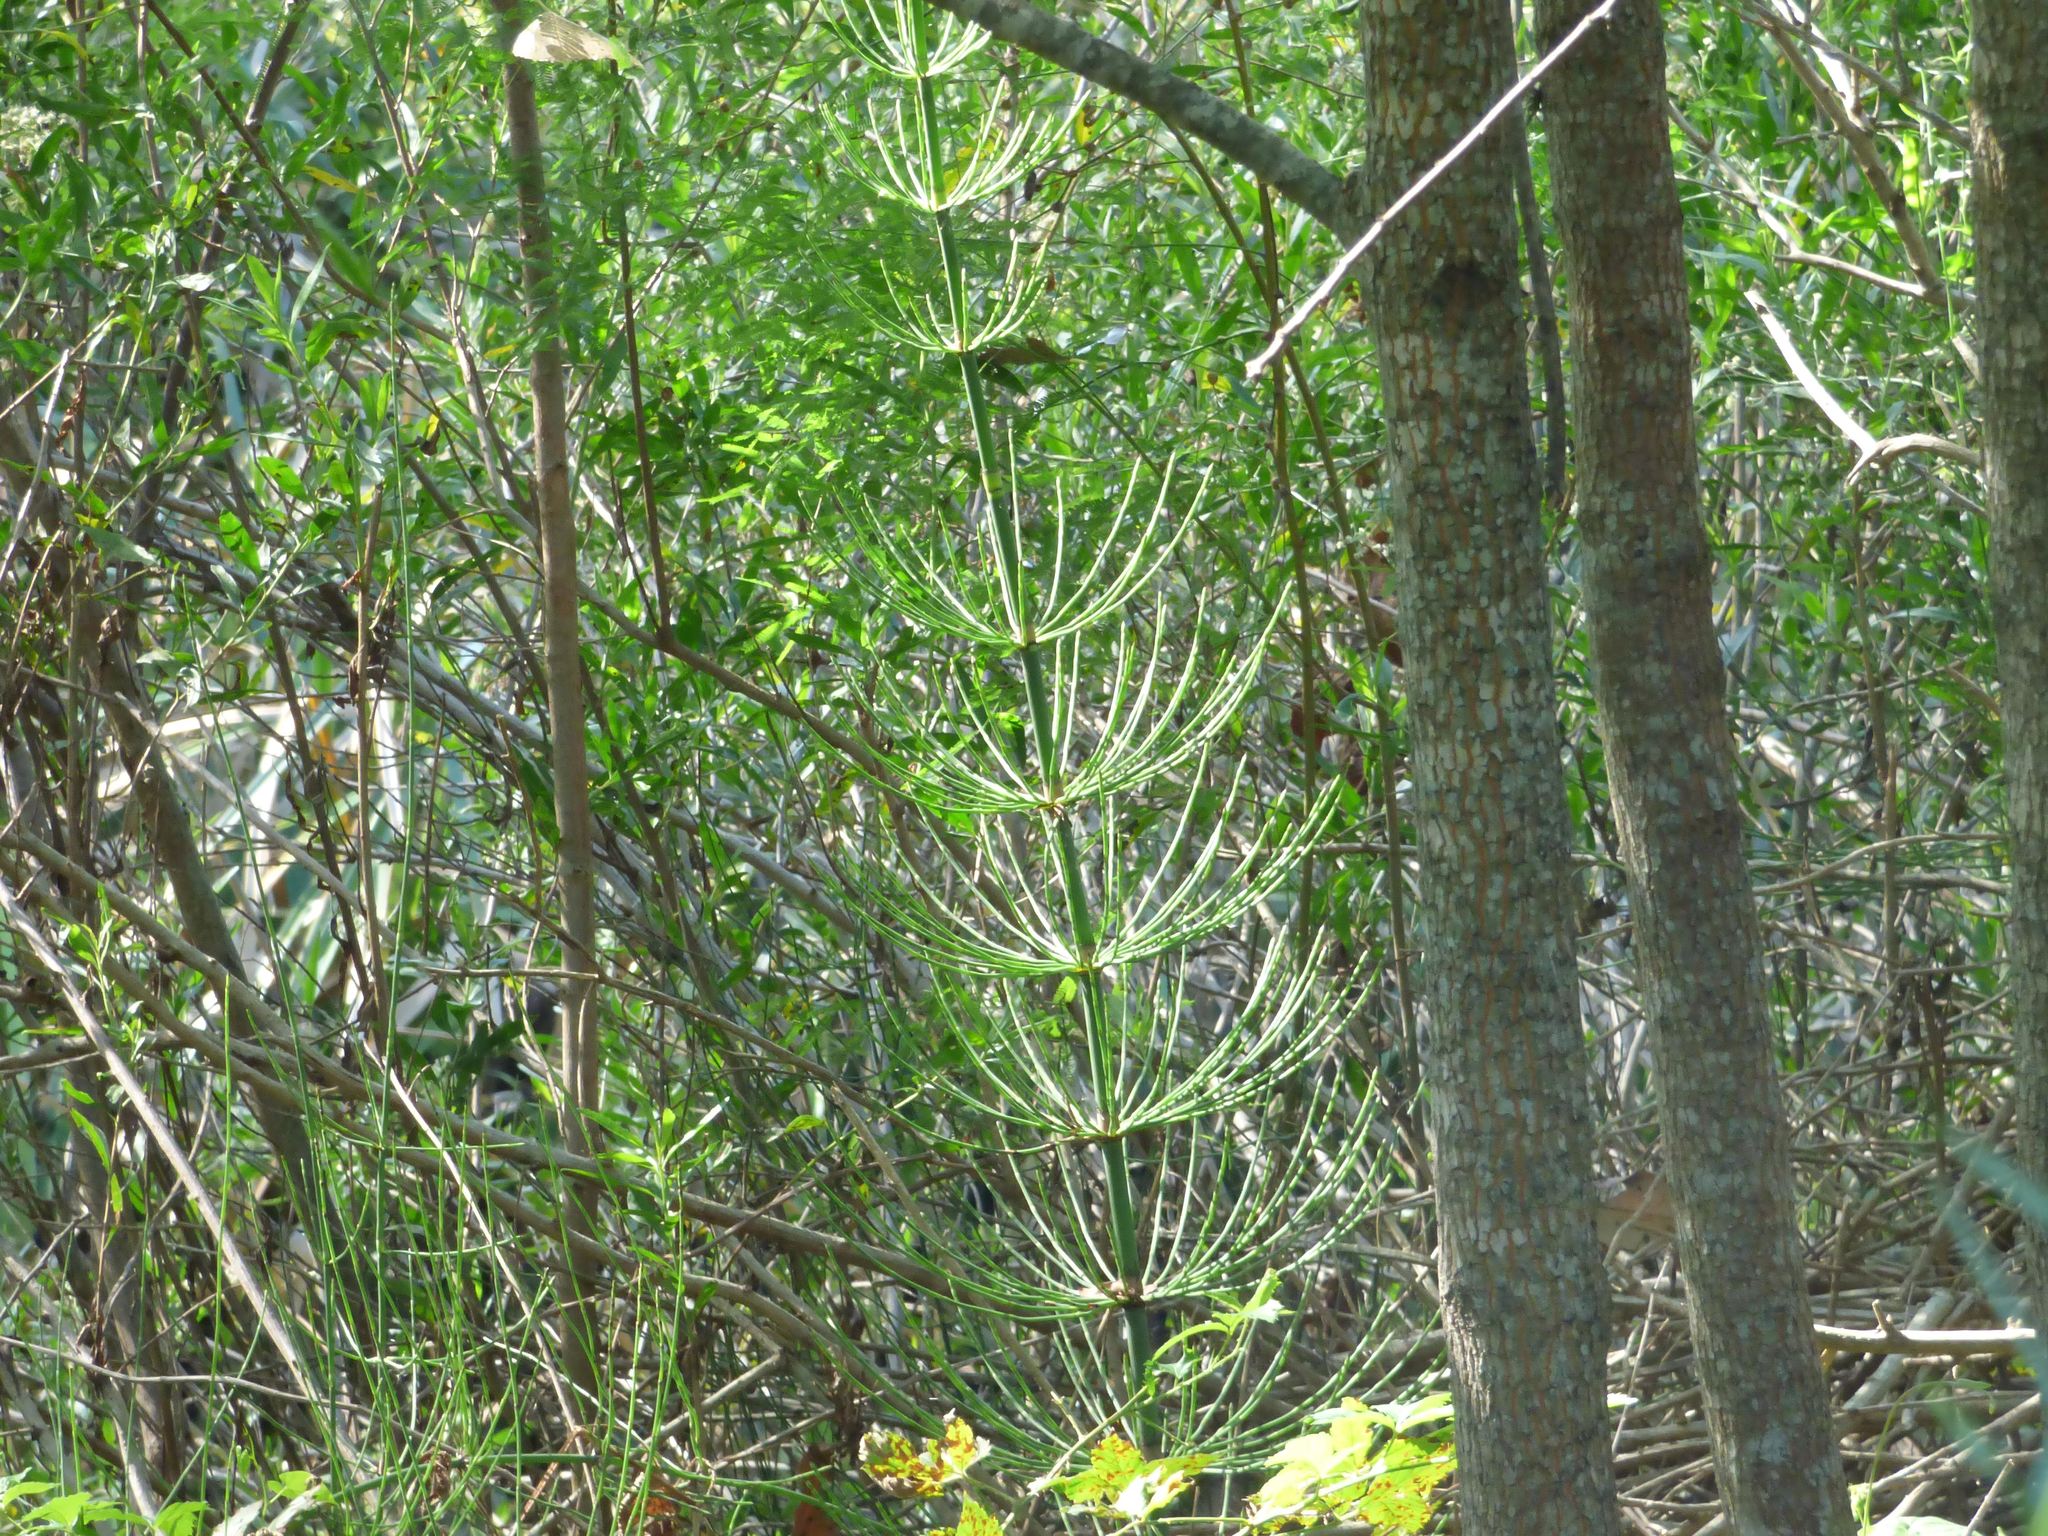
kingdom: Plantae
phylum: Tracheophyta
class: Polypodiopsida
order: Equisetales
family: Equisetaceae
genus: Equisetum
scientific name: Equisetum giganteum
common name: Giant horsetail
